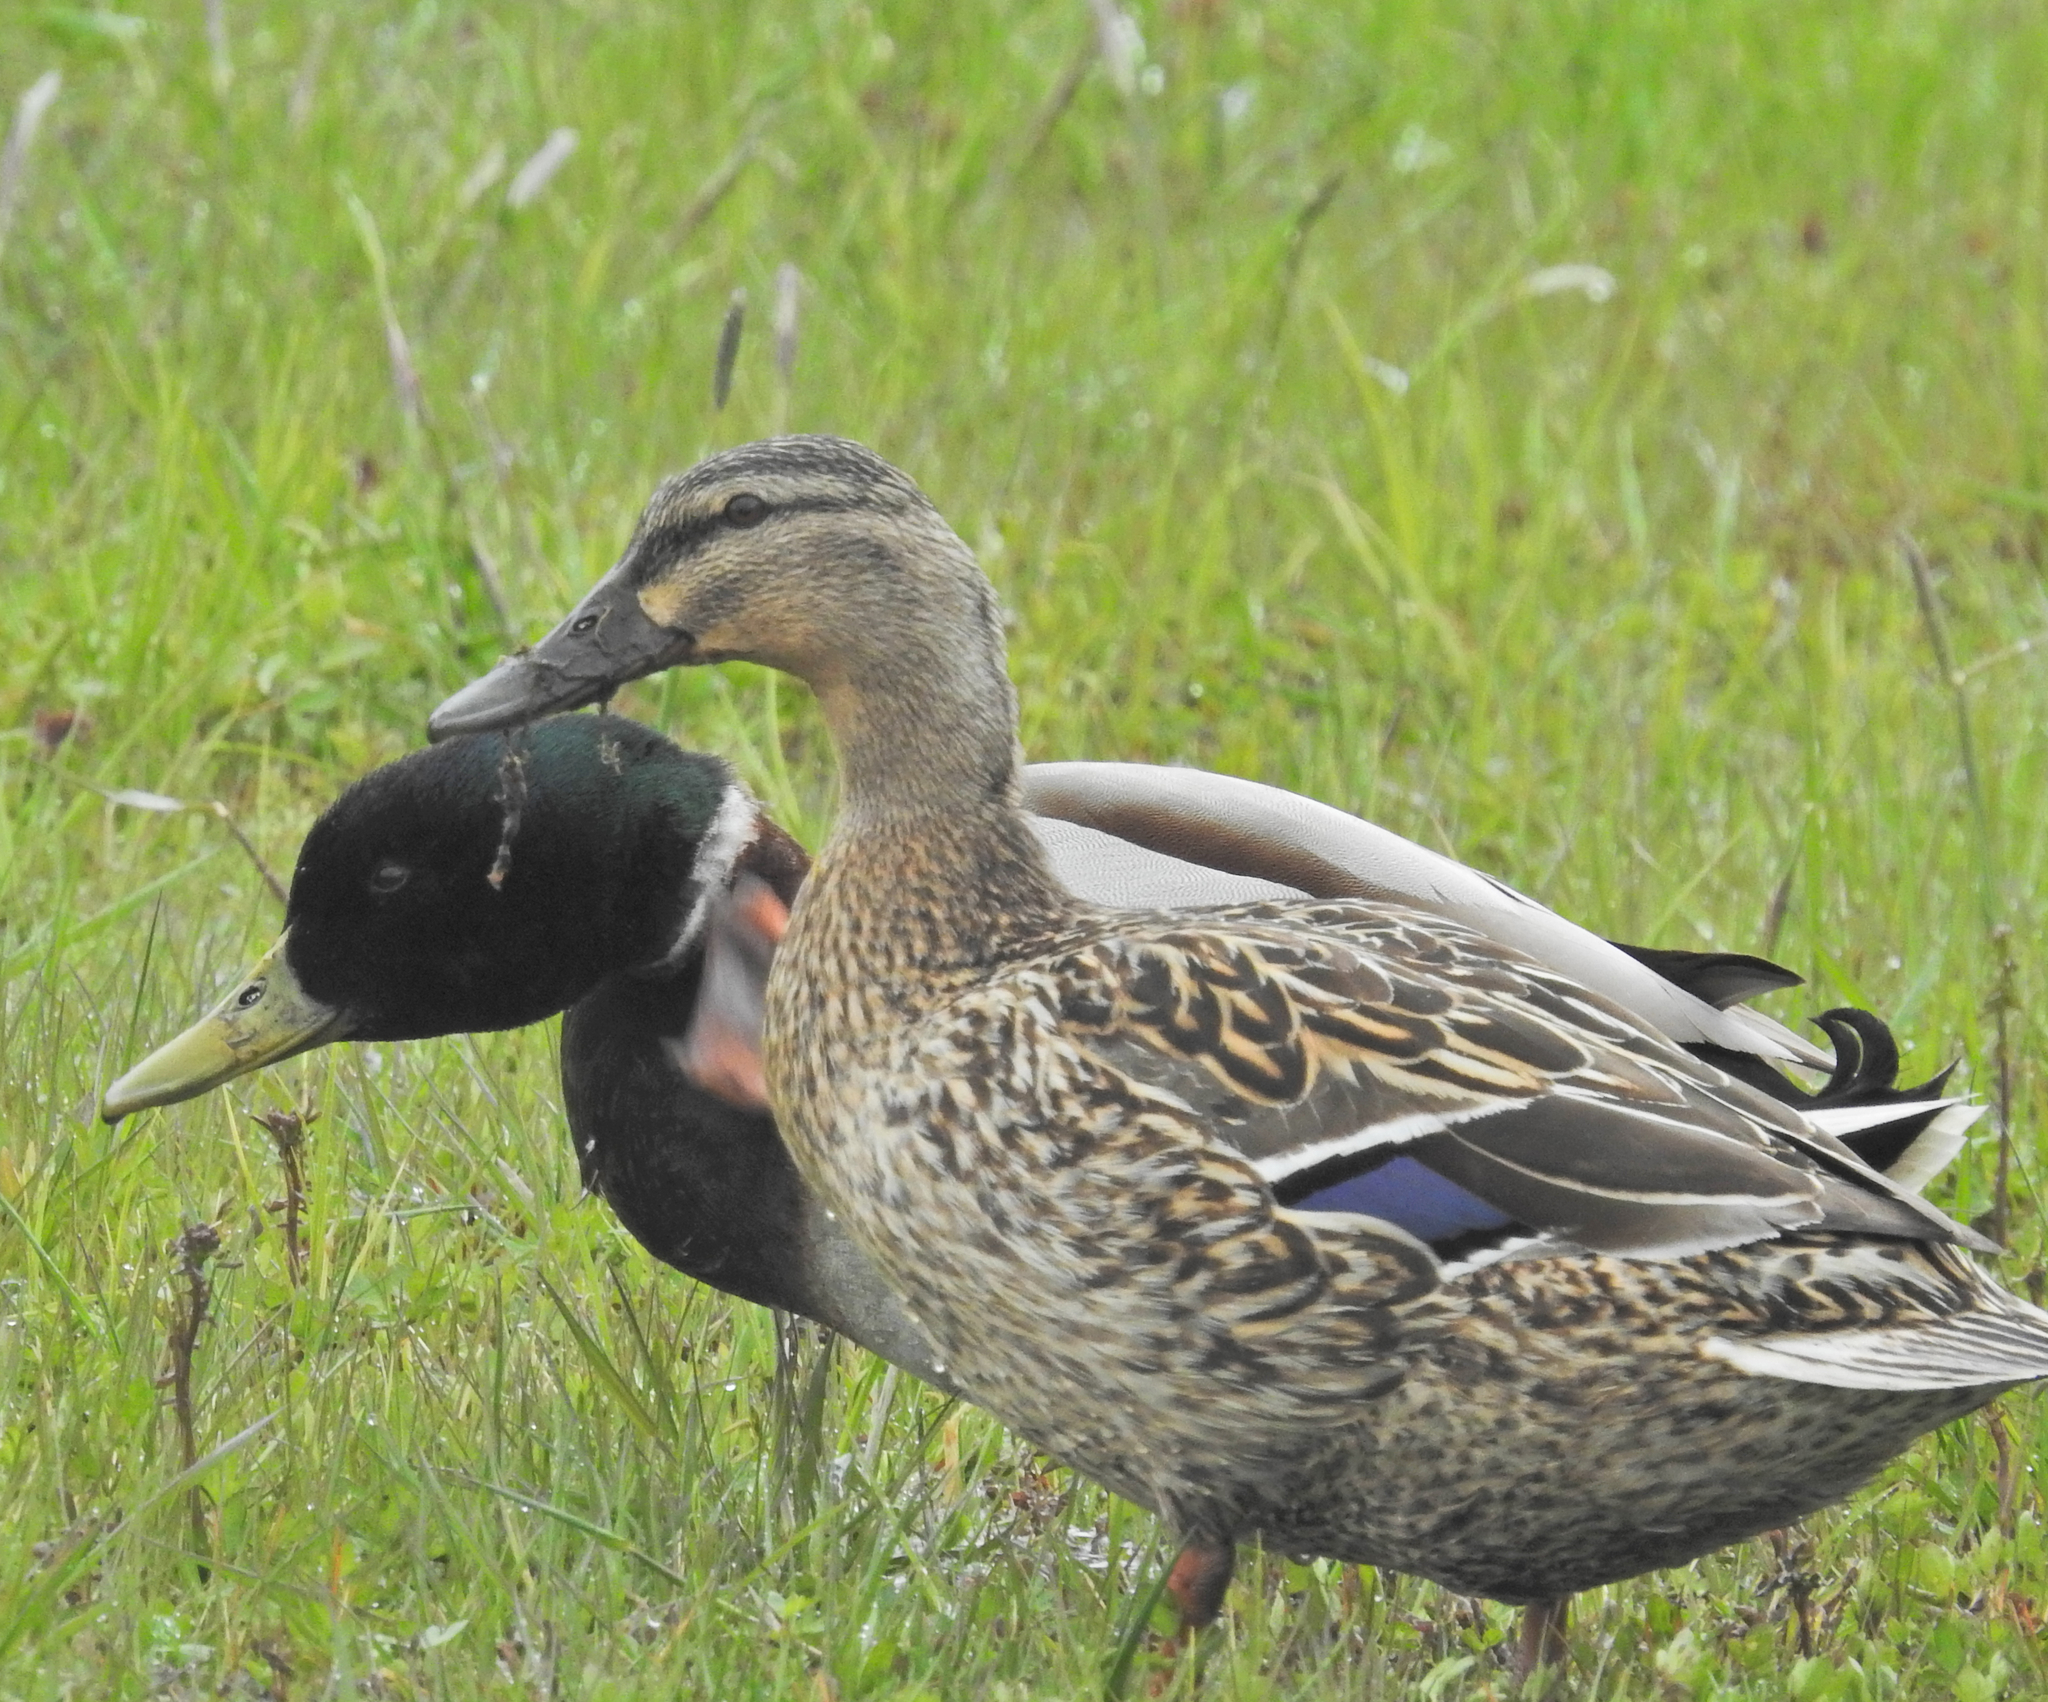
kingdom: Animalia
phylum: Chordata
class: Aves
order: Anseriformes
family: Anatidae
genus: Anas
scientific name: Anas platyrhynchos
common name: Mallard
